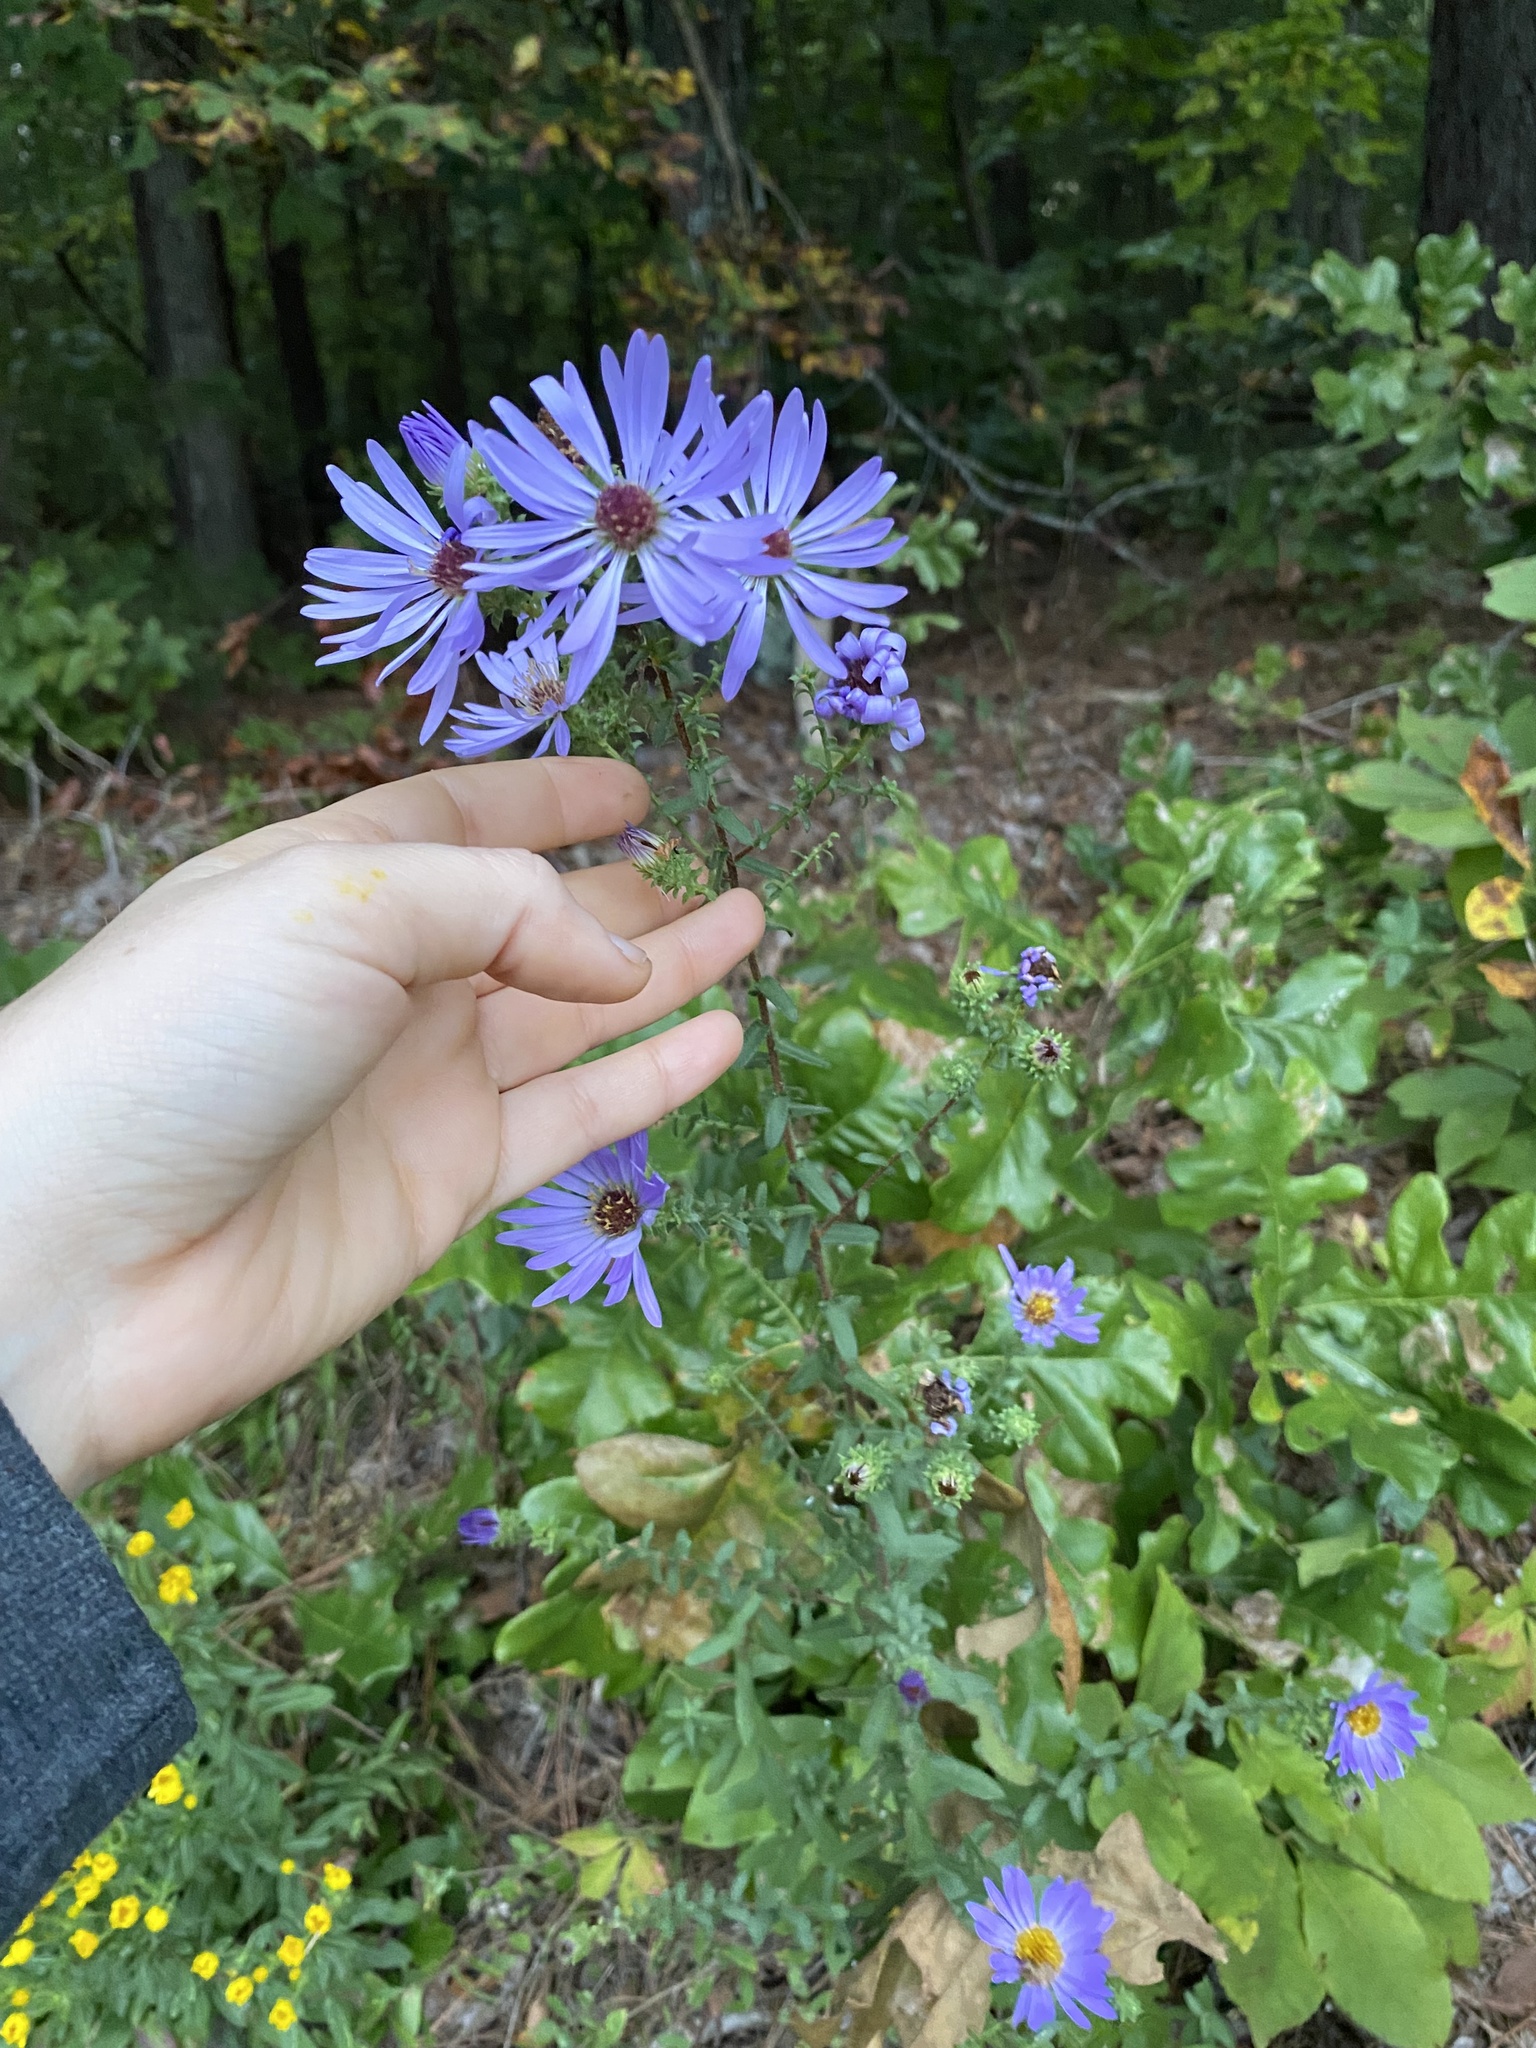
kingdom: Plantae
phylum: Tracheophyta
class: Magnoliopsida
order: Asterales
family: Asteraceae
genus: Symphyotrichum
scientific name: Symphyotrichum grandiflorum
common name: Big-head aster
